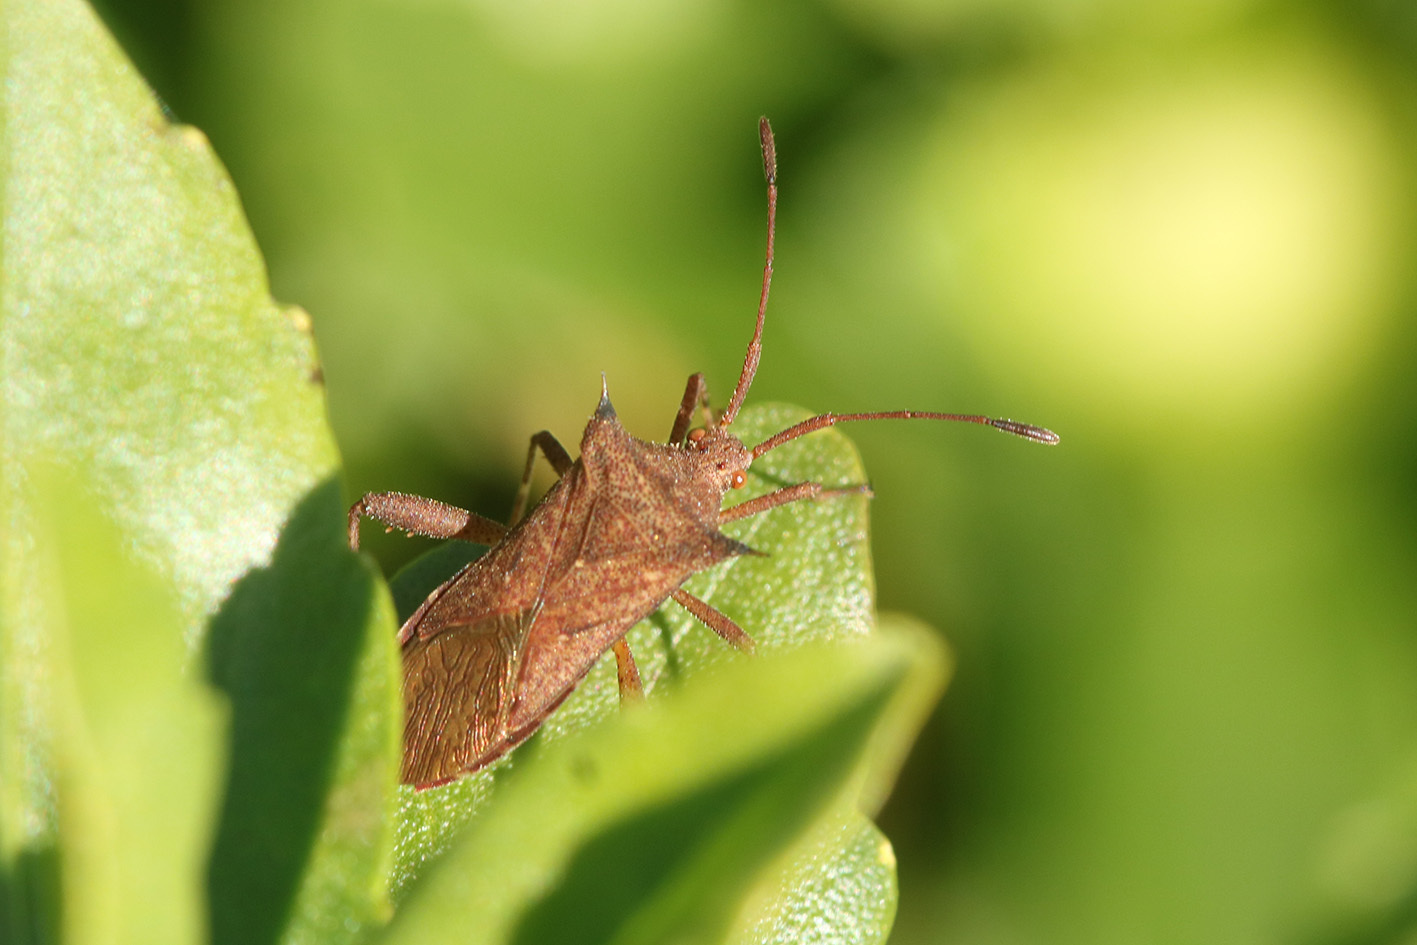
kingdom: Animalia
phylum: Arthropoda
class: Insecta
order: Hemiptera
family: Coreidae
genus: Zicca
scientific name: Zicca stali
